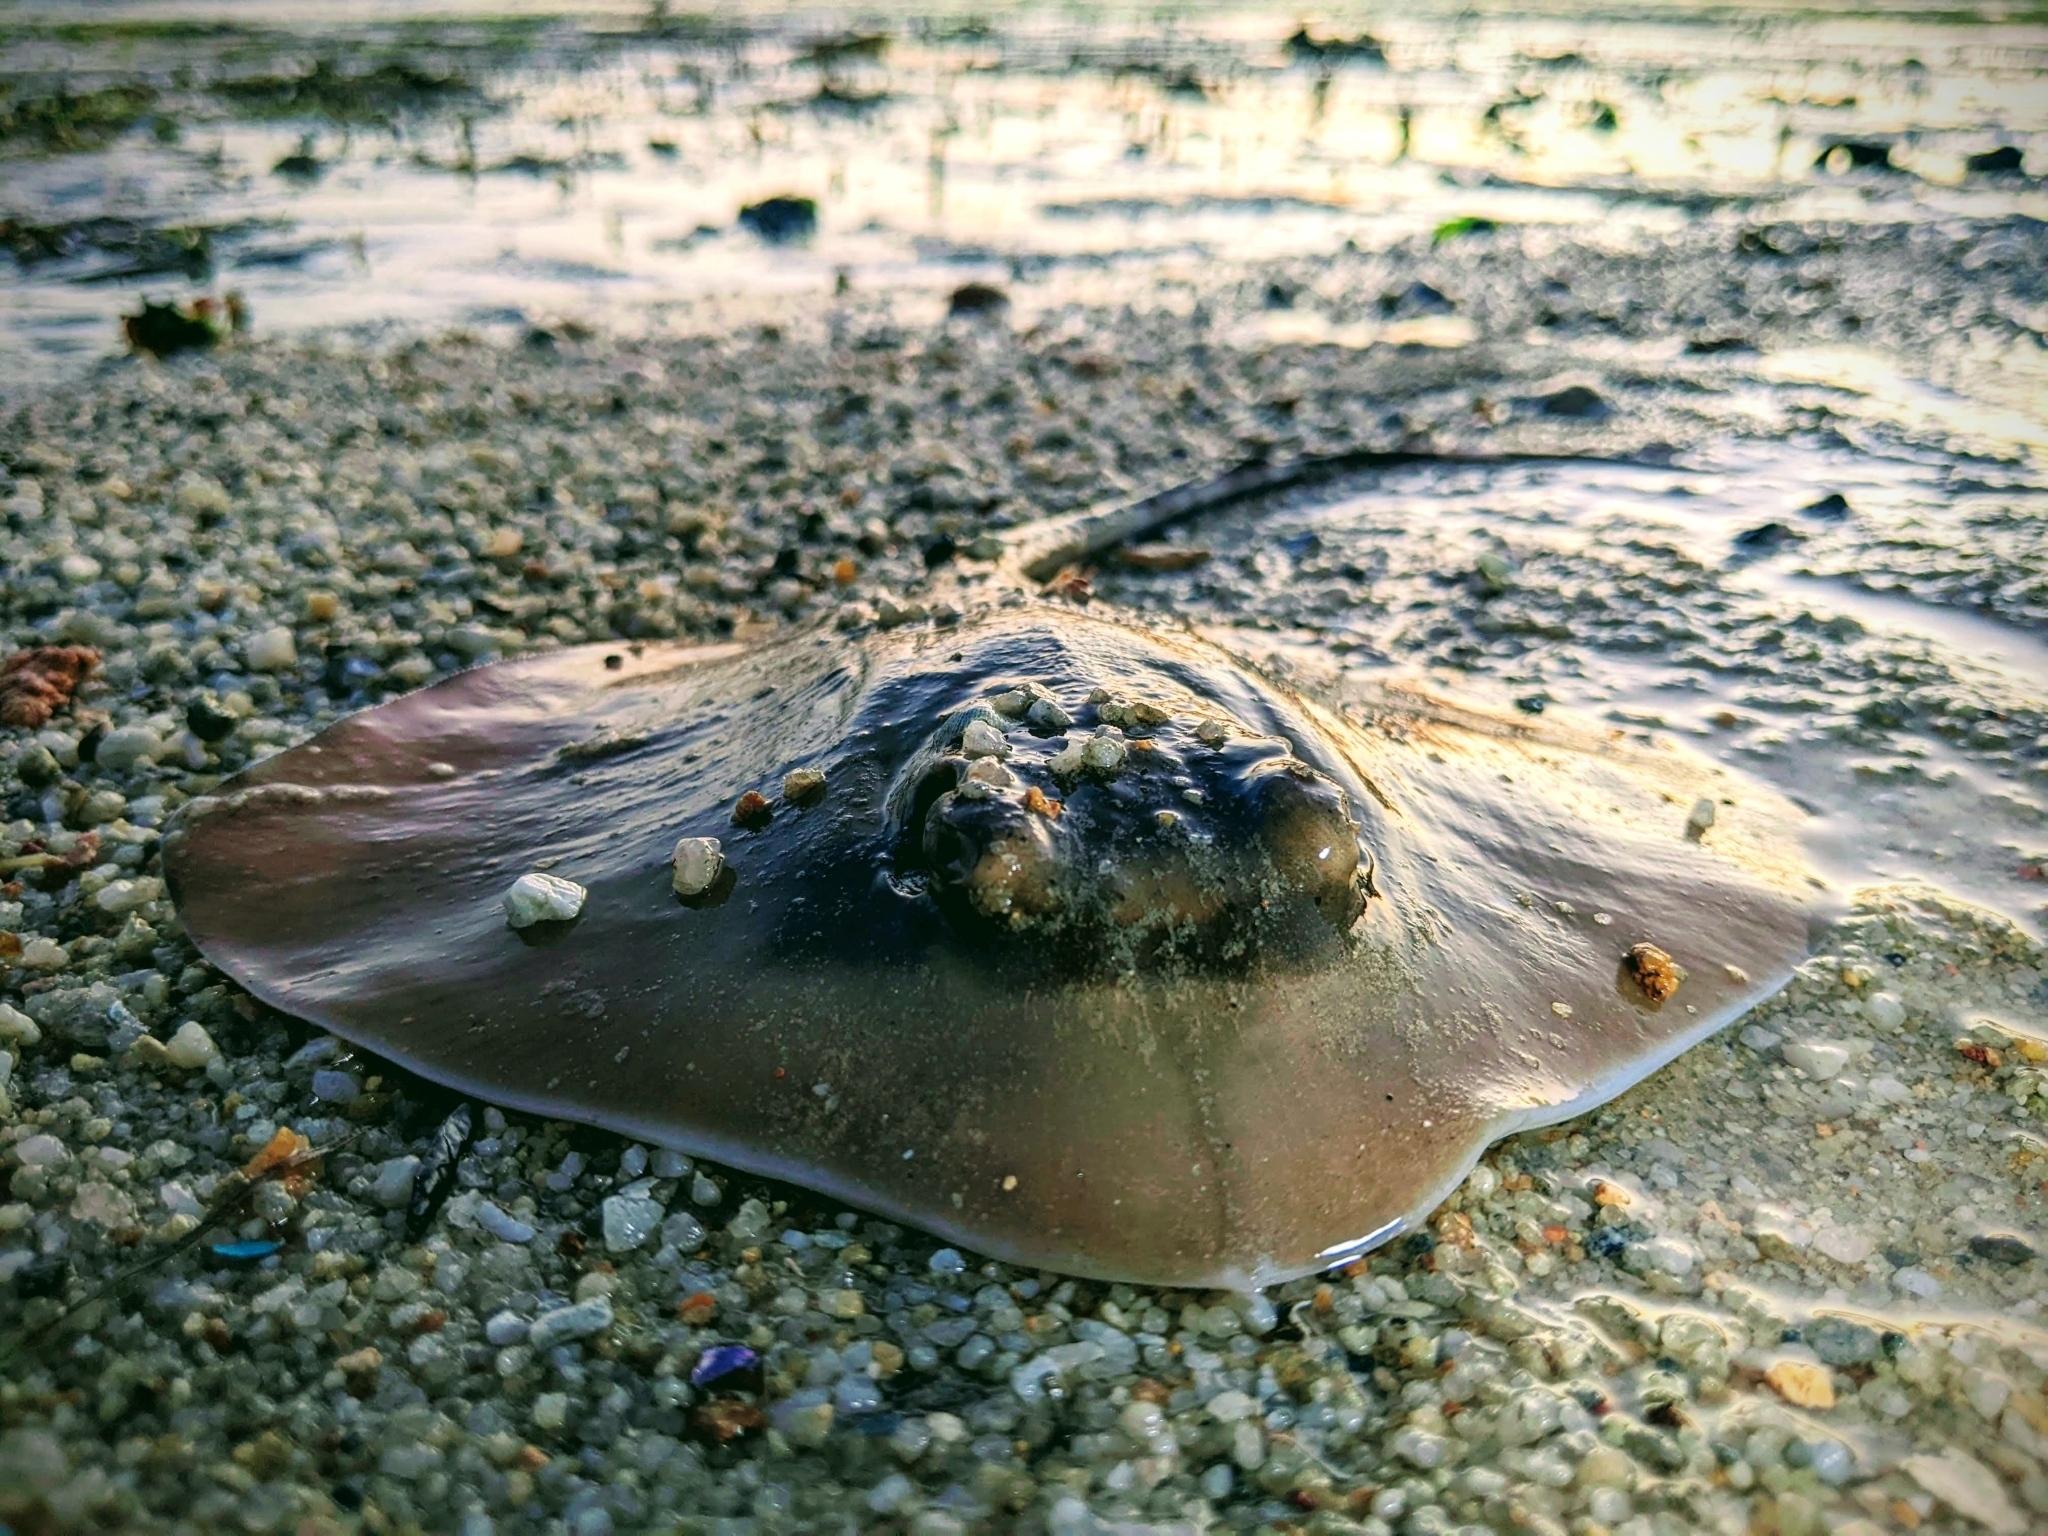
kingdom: Animalia
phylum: Chordata
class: Elasmobranchii
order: Myliobatiformes
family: Dasyatidae
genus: Neotrygon
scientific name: Neotrygon varidens
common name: Mahogany maskray
